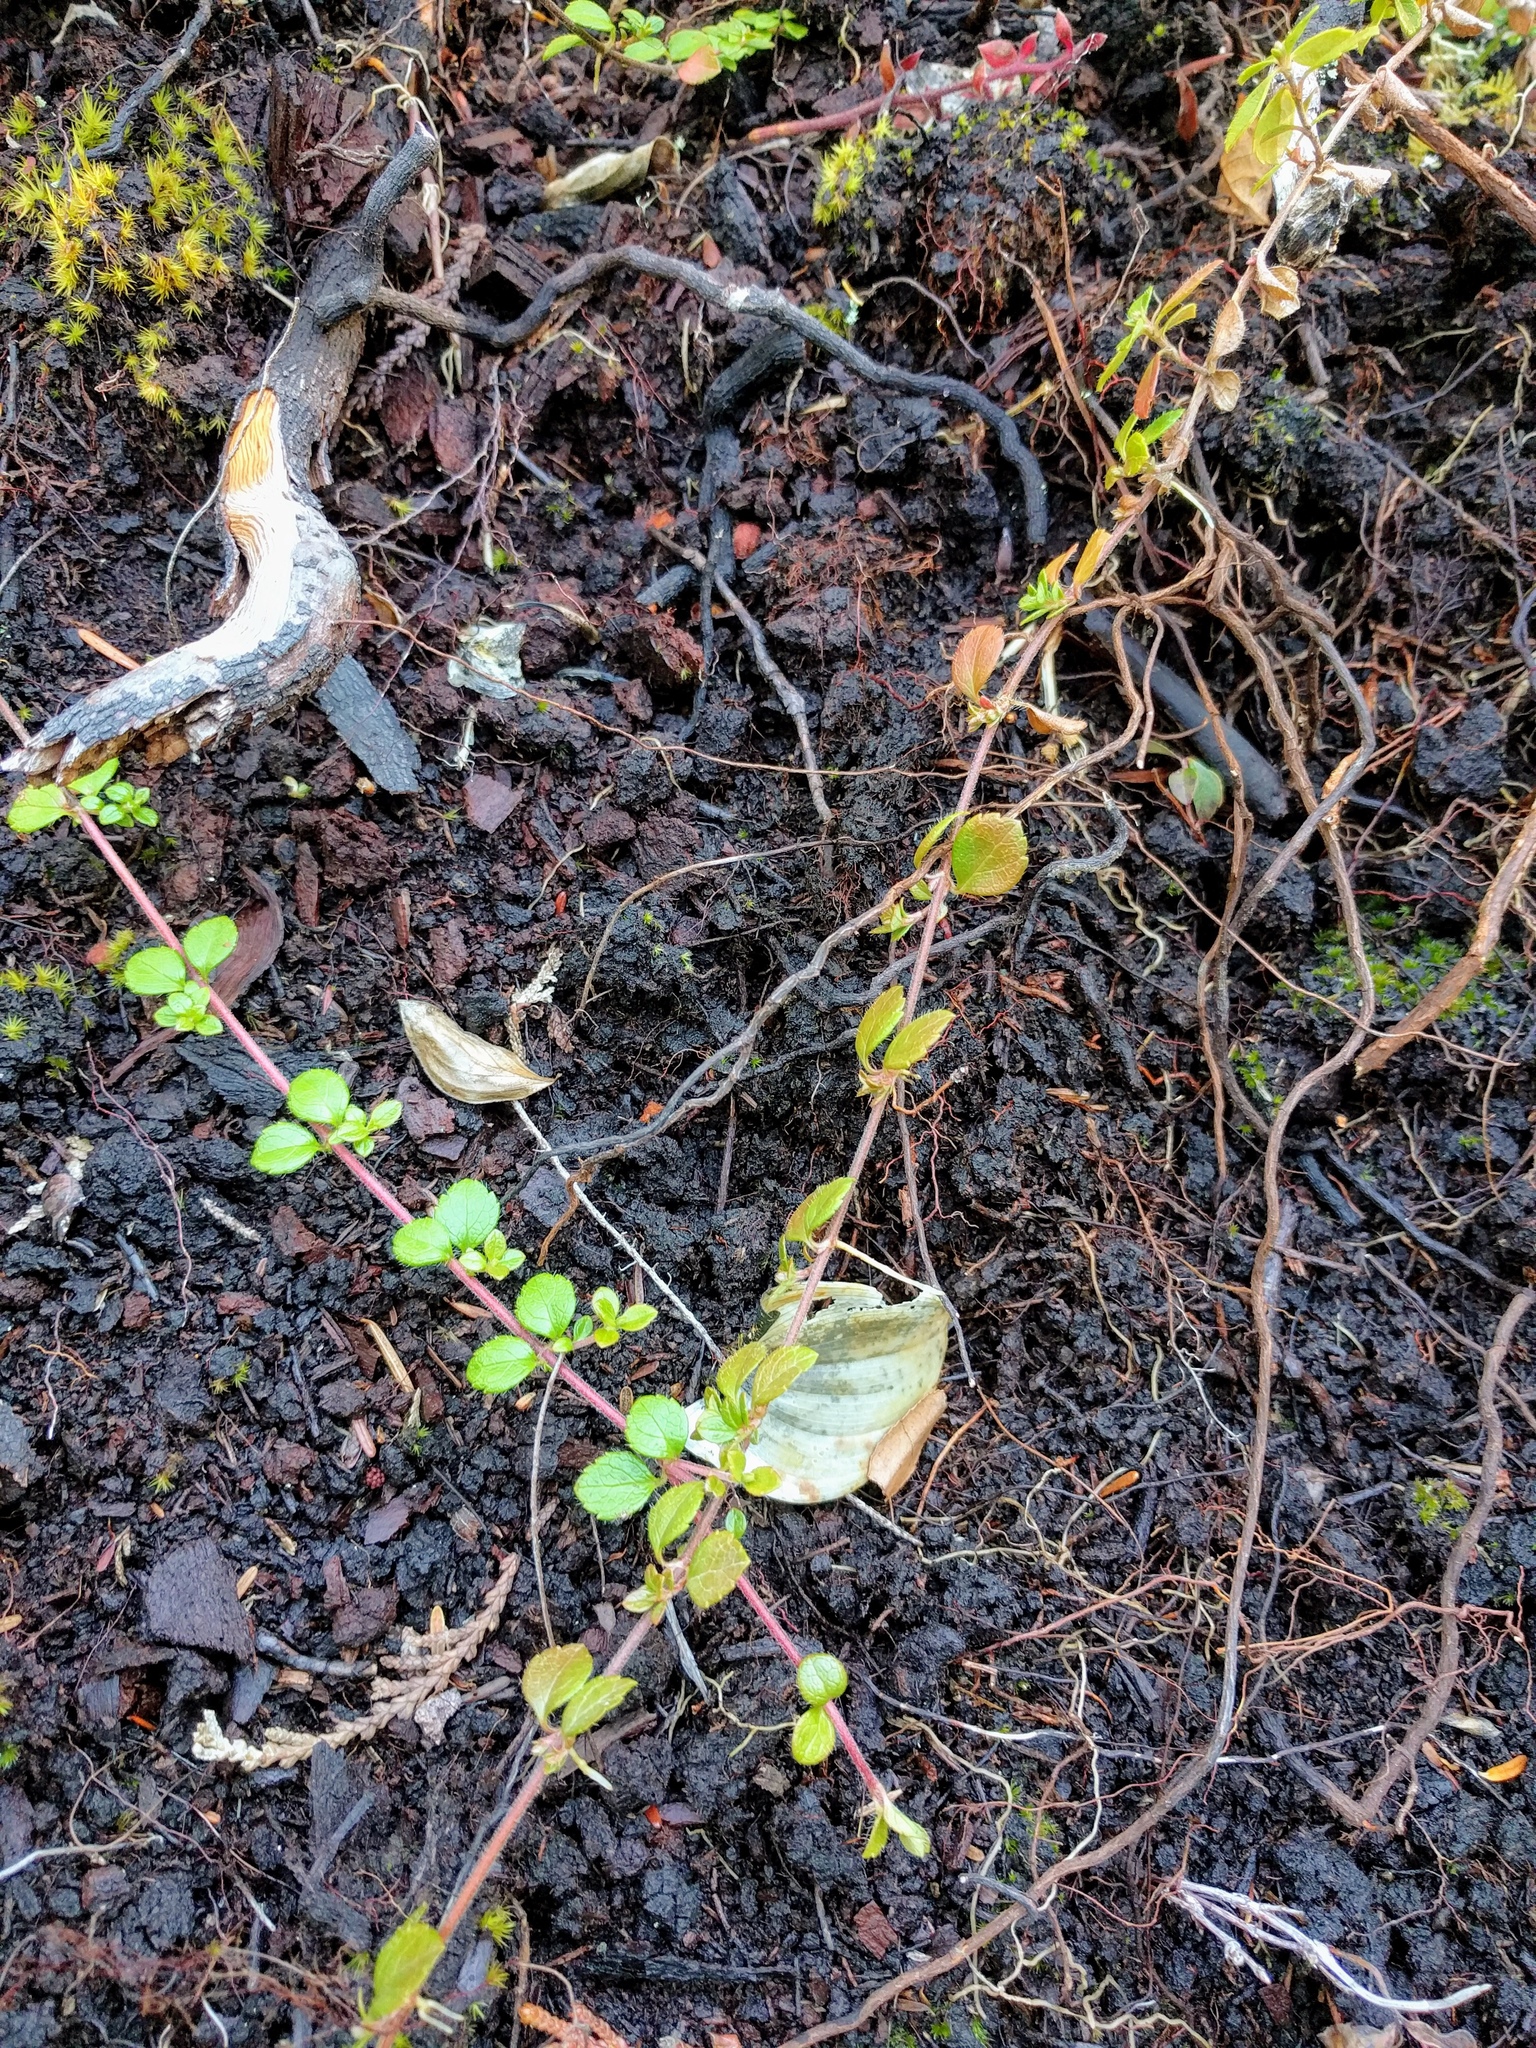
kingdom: Plantae
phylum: Tracheophyta
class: Magnoliopsida
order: Dipsacales
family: Caprifoliaceae
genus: Linnaea
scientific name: Linnaea borealis
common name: Twinflower
